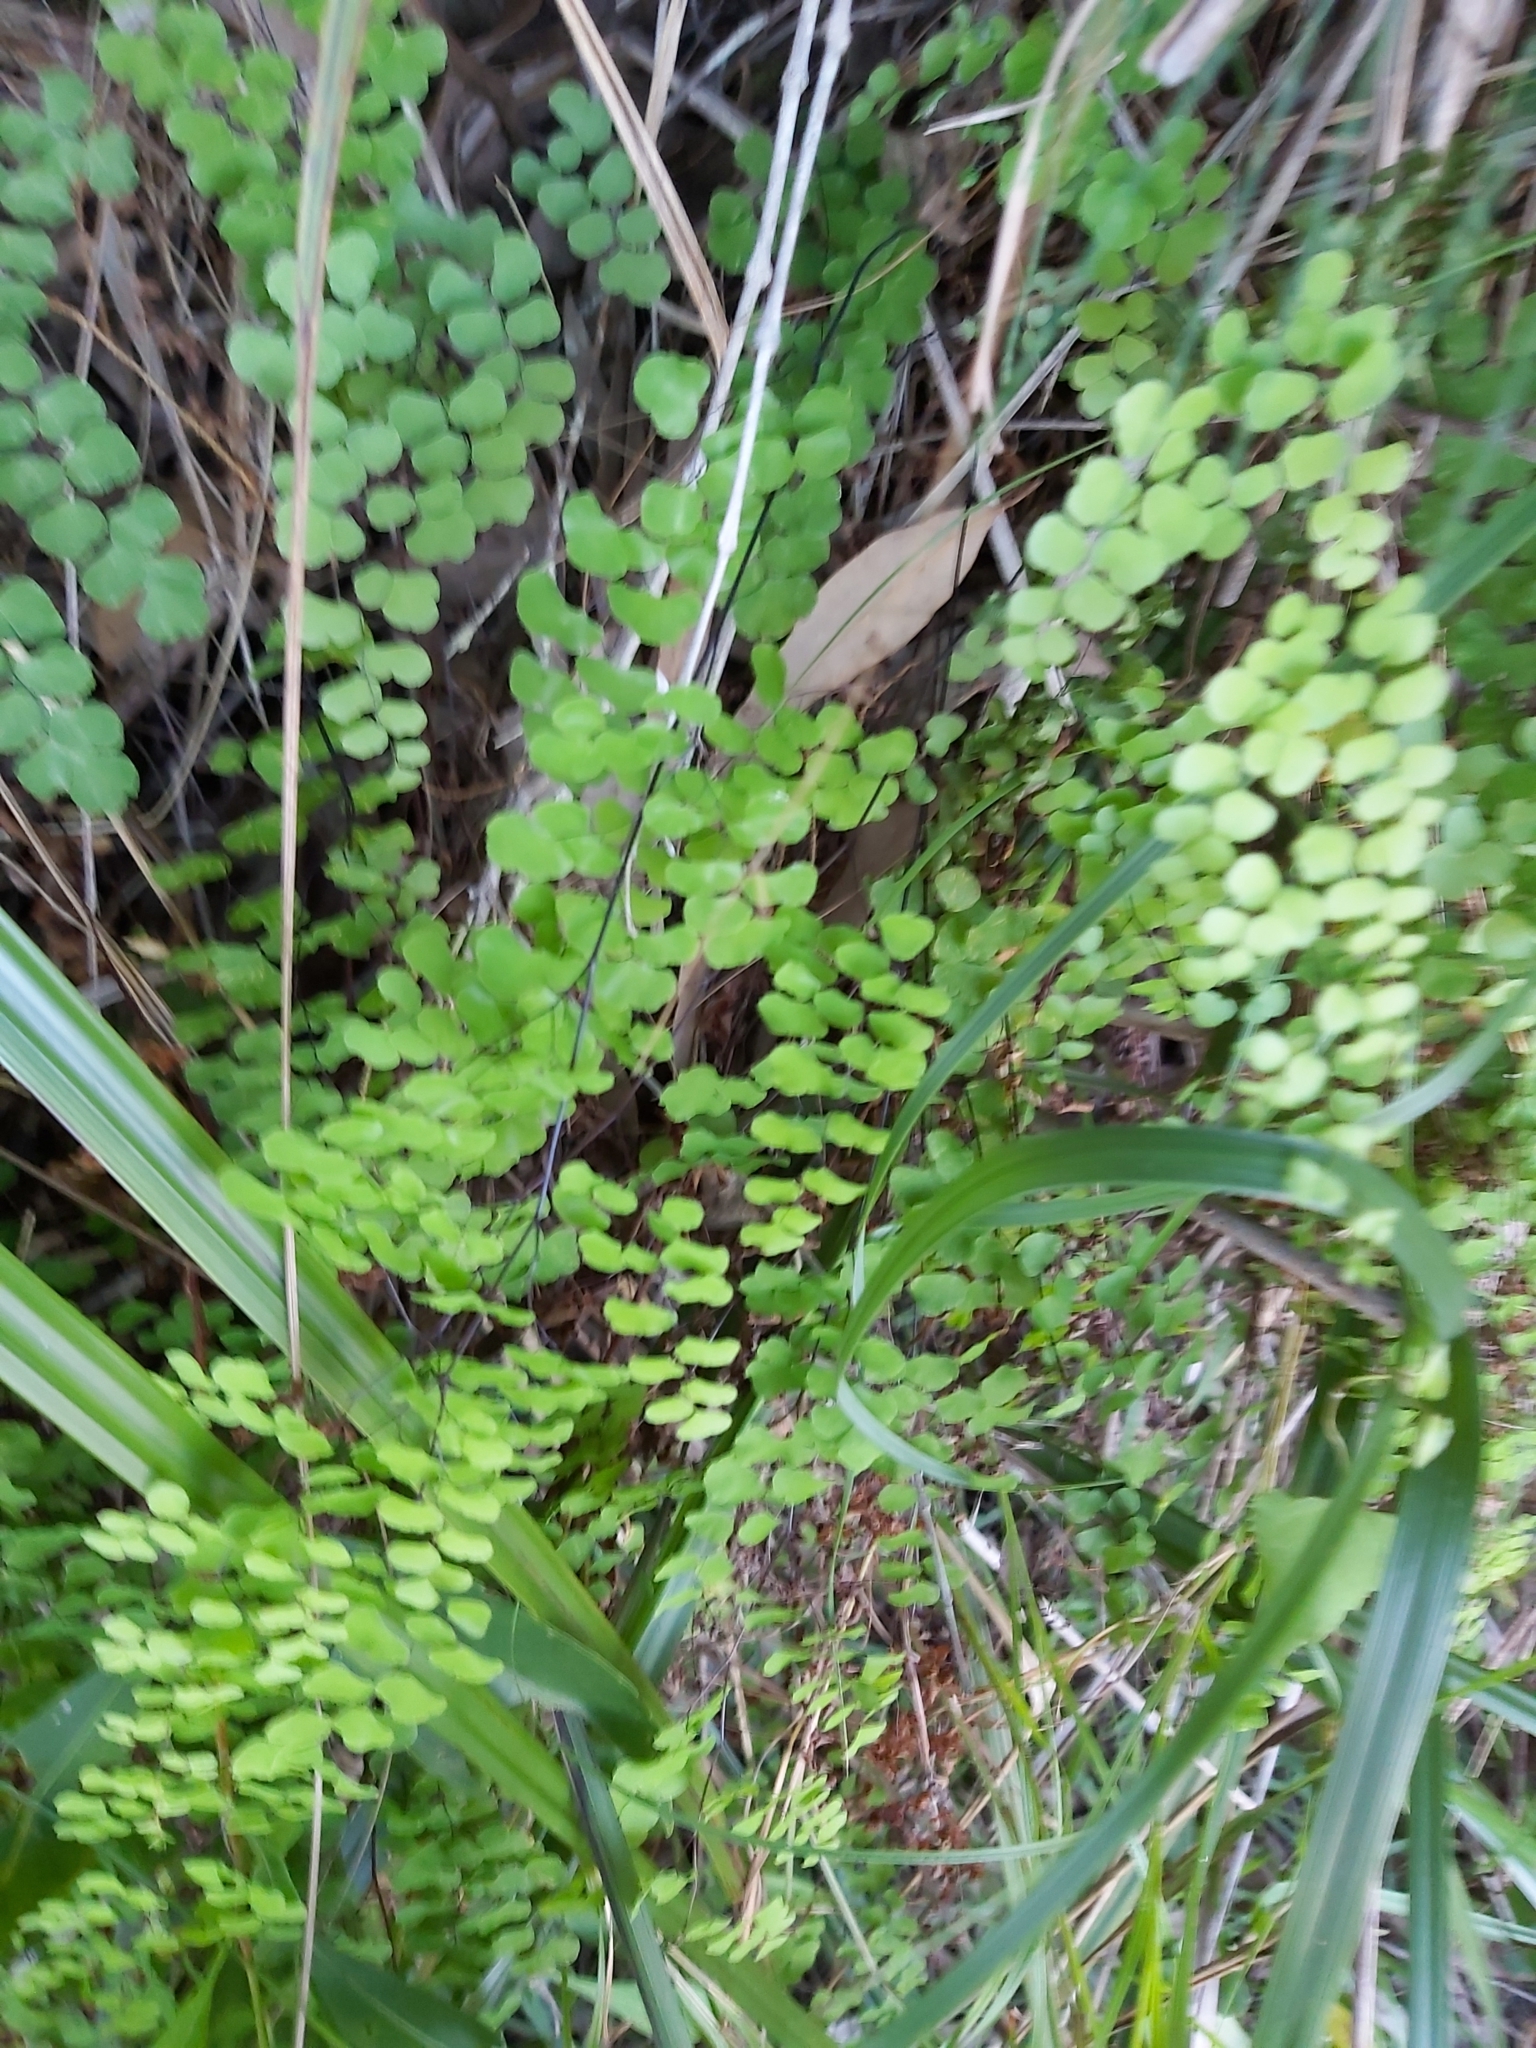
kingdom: Plantae
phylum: Tracheophyta
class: Polypodiopsida
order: Polypodiales
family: Pteridaceae
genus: Adiantum
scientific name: Adiantum aethiopicum
